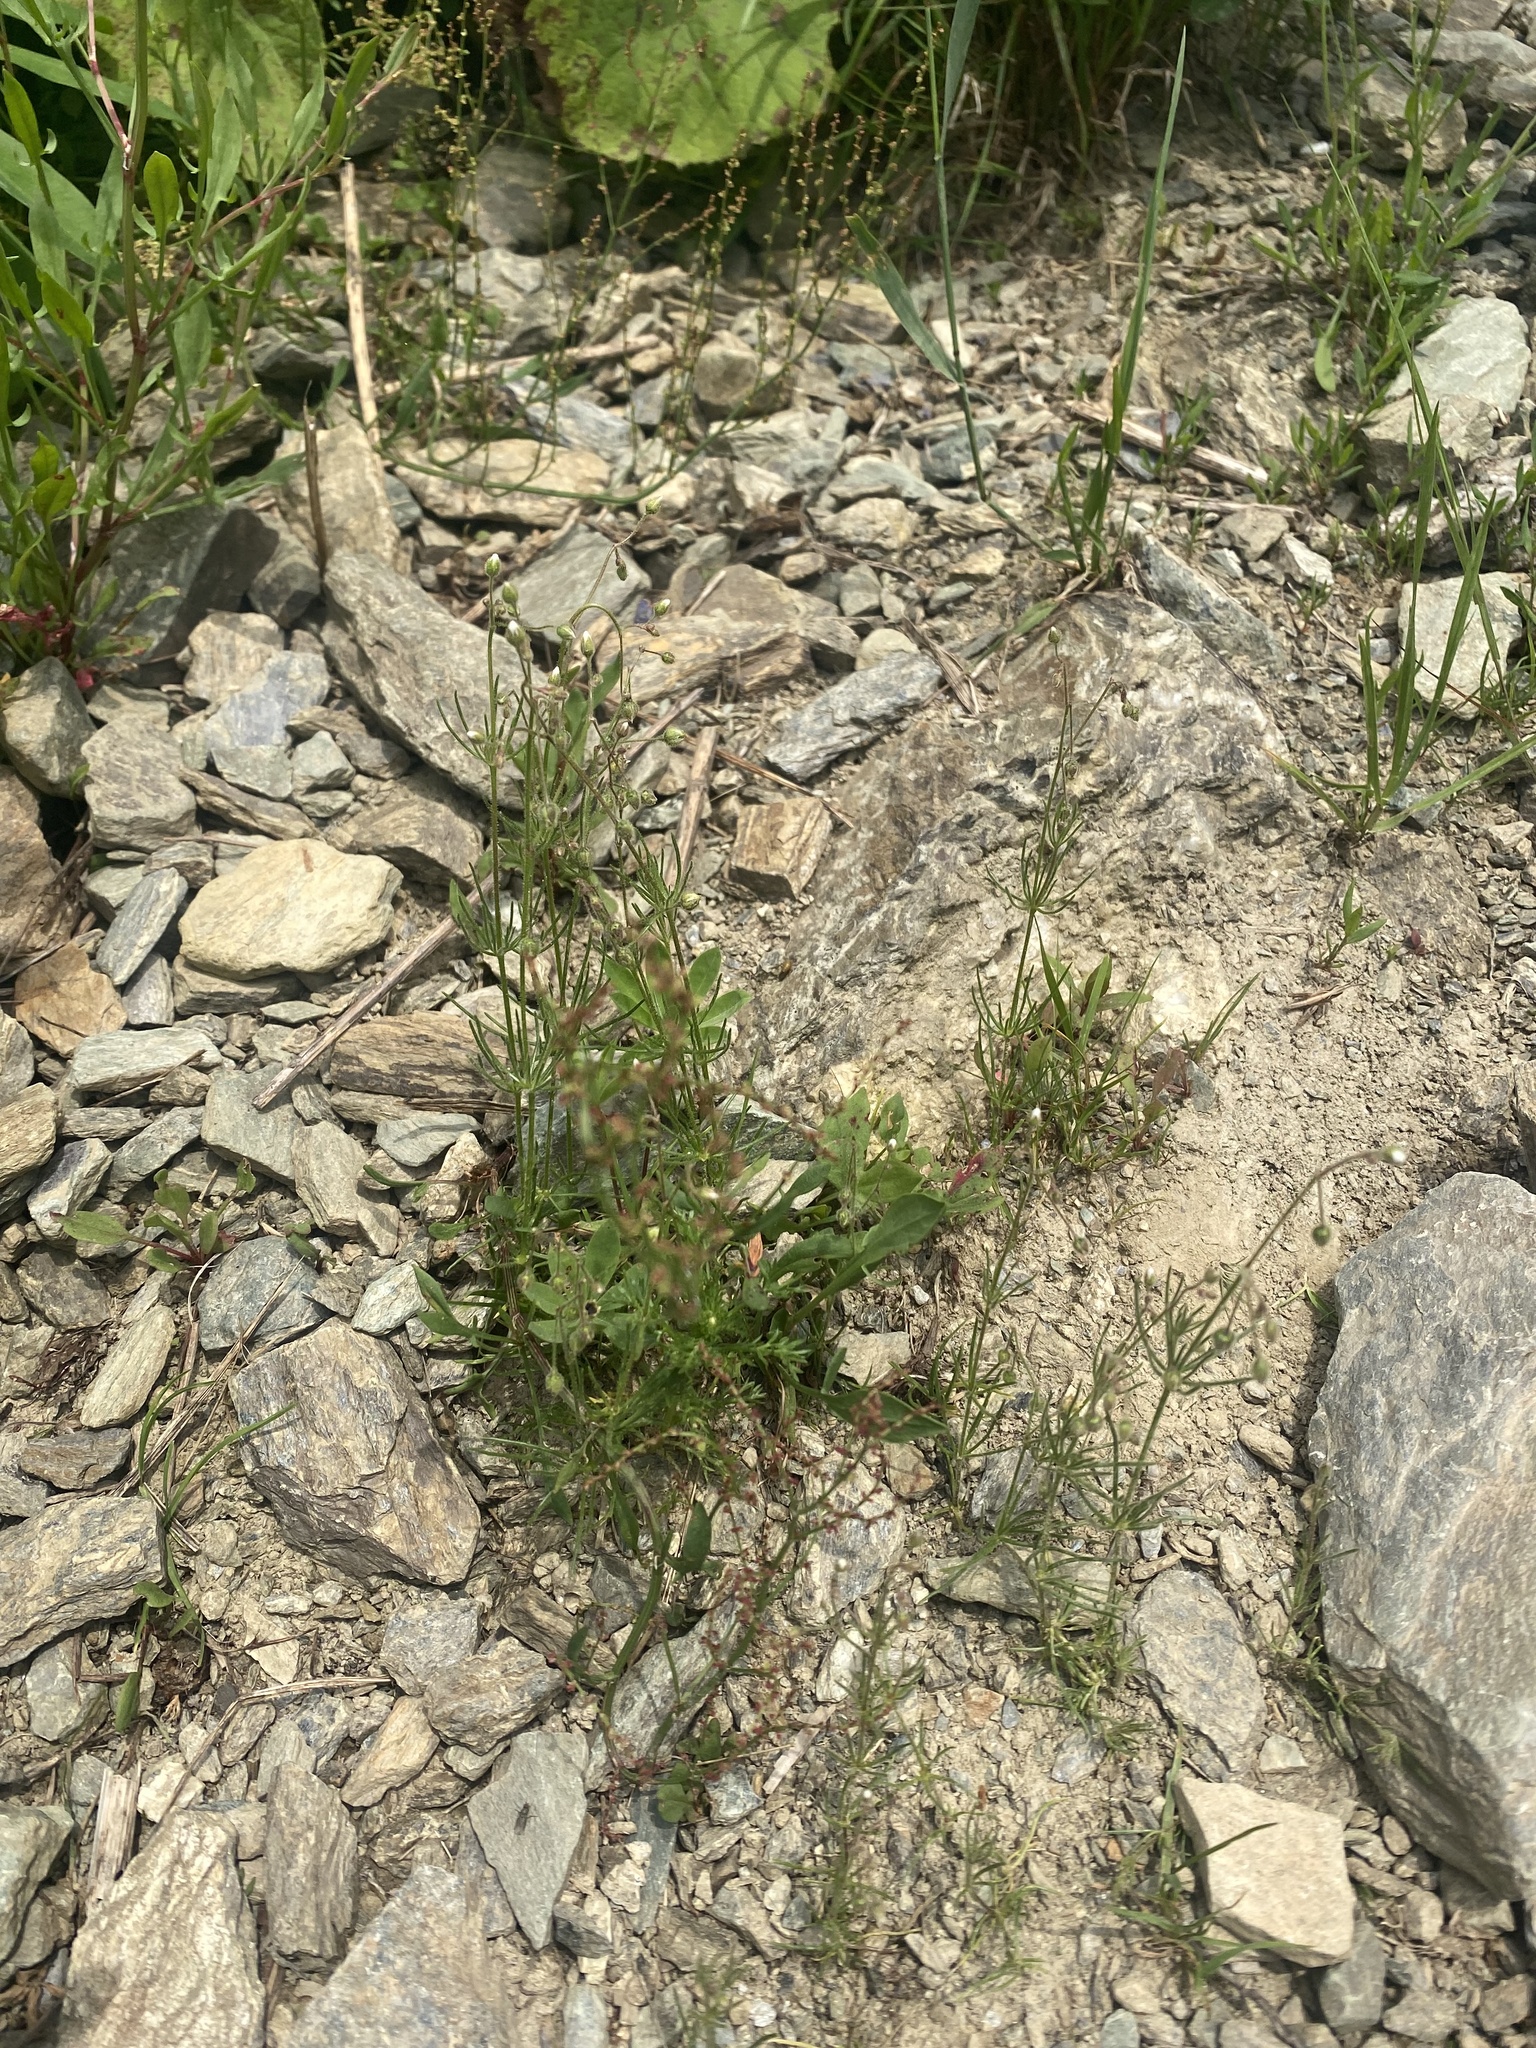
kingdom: Plantae
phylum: Tracheophyta
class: Magnoliopsida
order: Caryophyllales
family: Caryophyllaceae
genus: Spergula
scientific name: Spergula arvensis
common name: Corn spurrey
